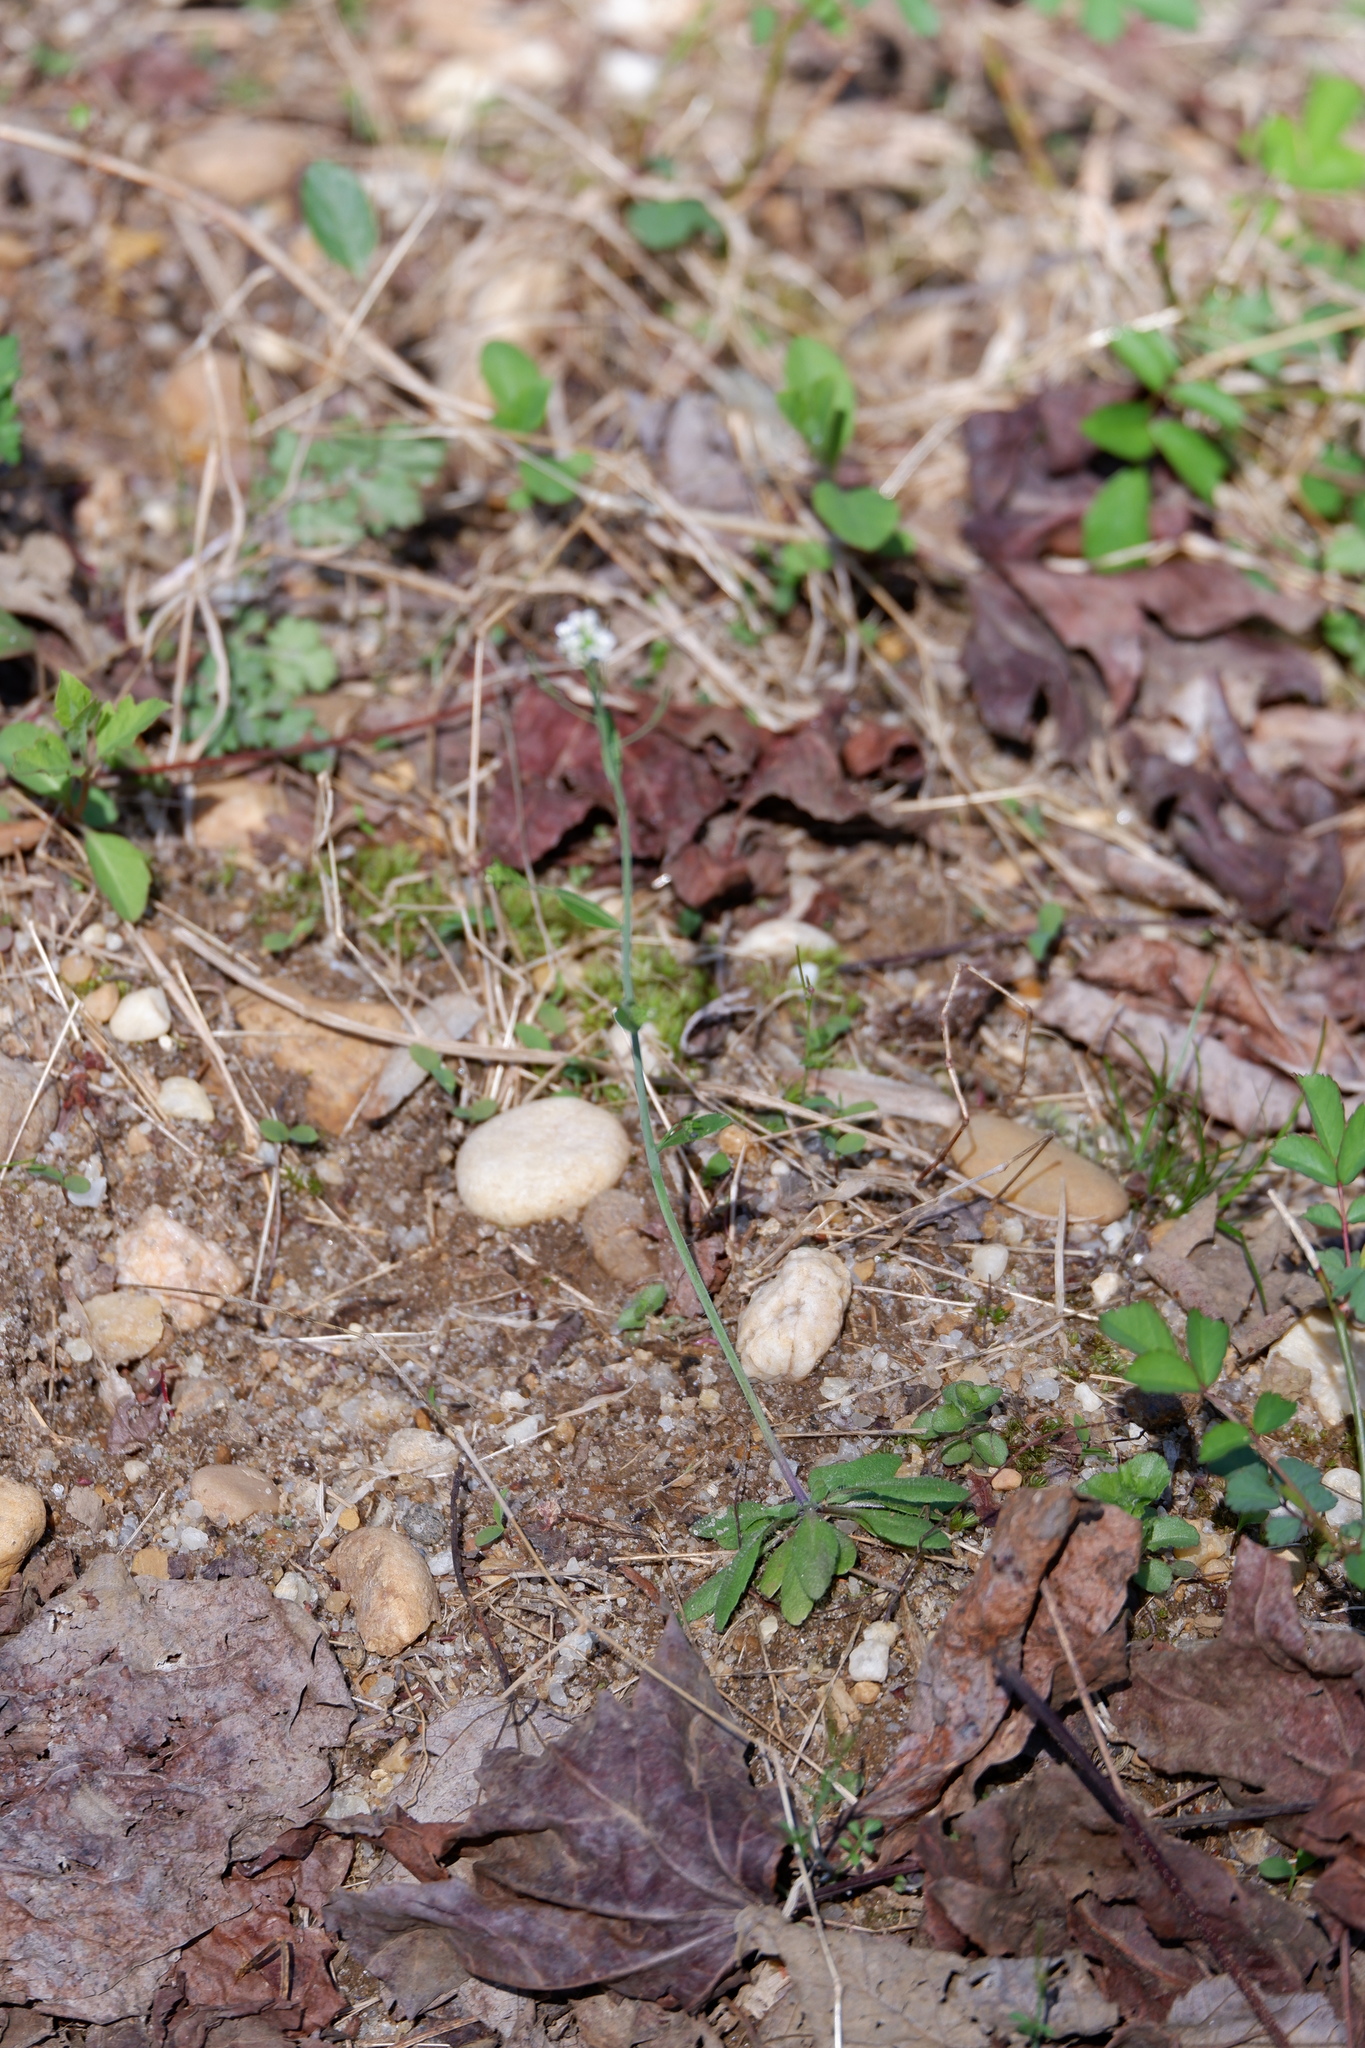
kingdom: Plantae
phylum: Tracheophyta
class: Magnoliopsida
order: Brassicales
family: Brassicaceae
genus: Arabidopsis
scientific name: Arabidopsis thaliana
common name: Thale cress
